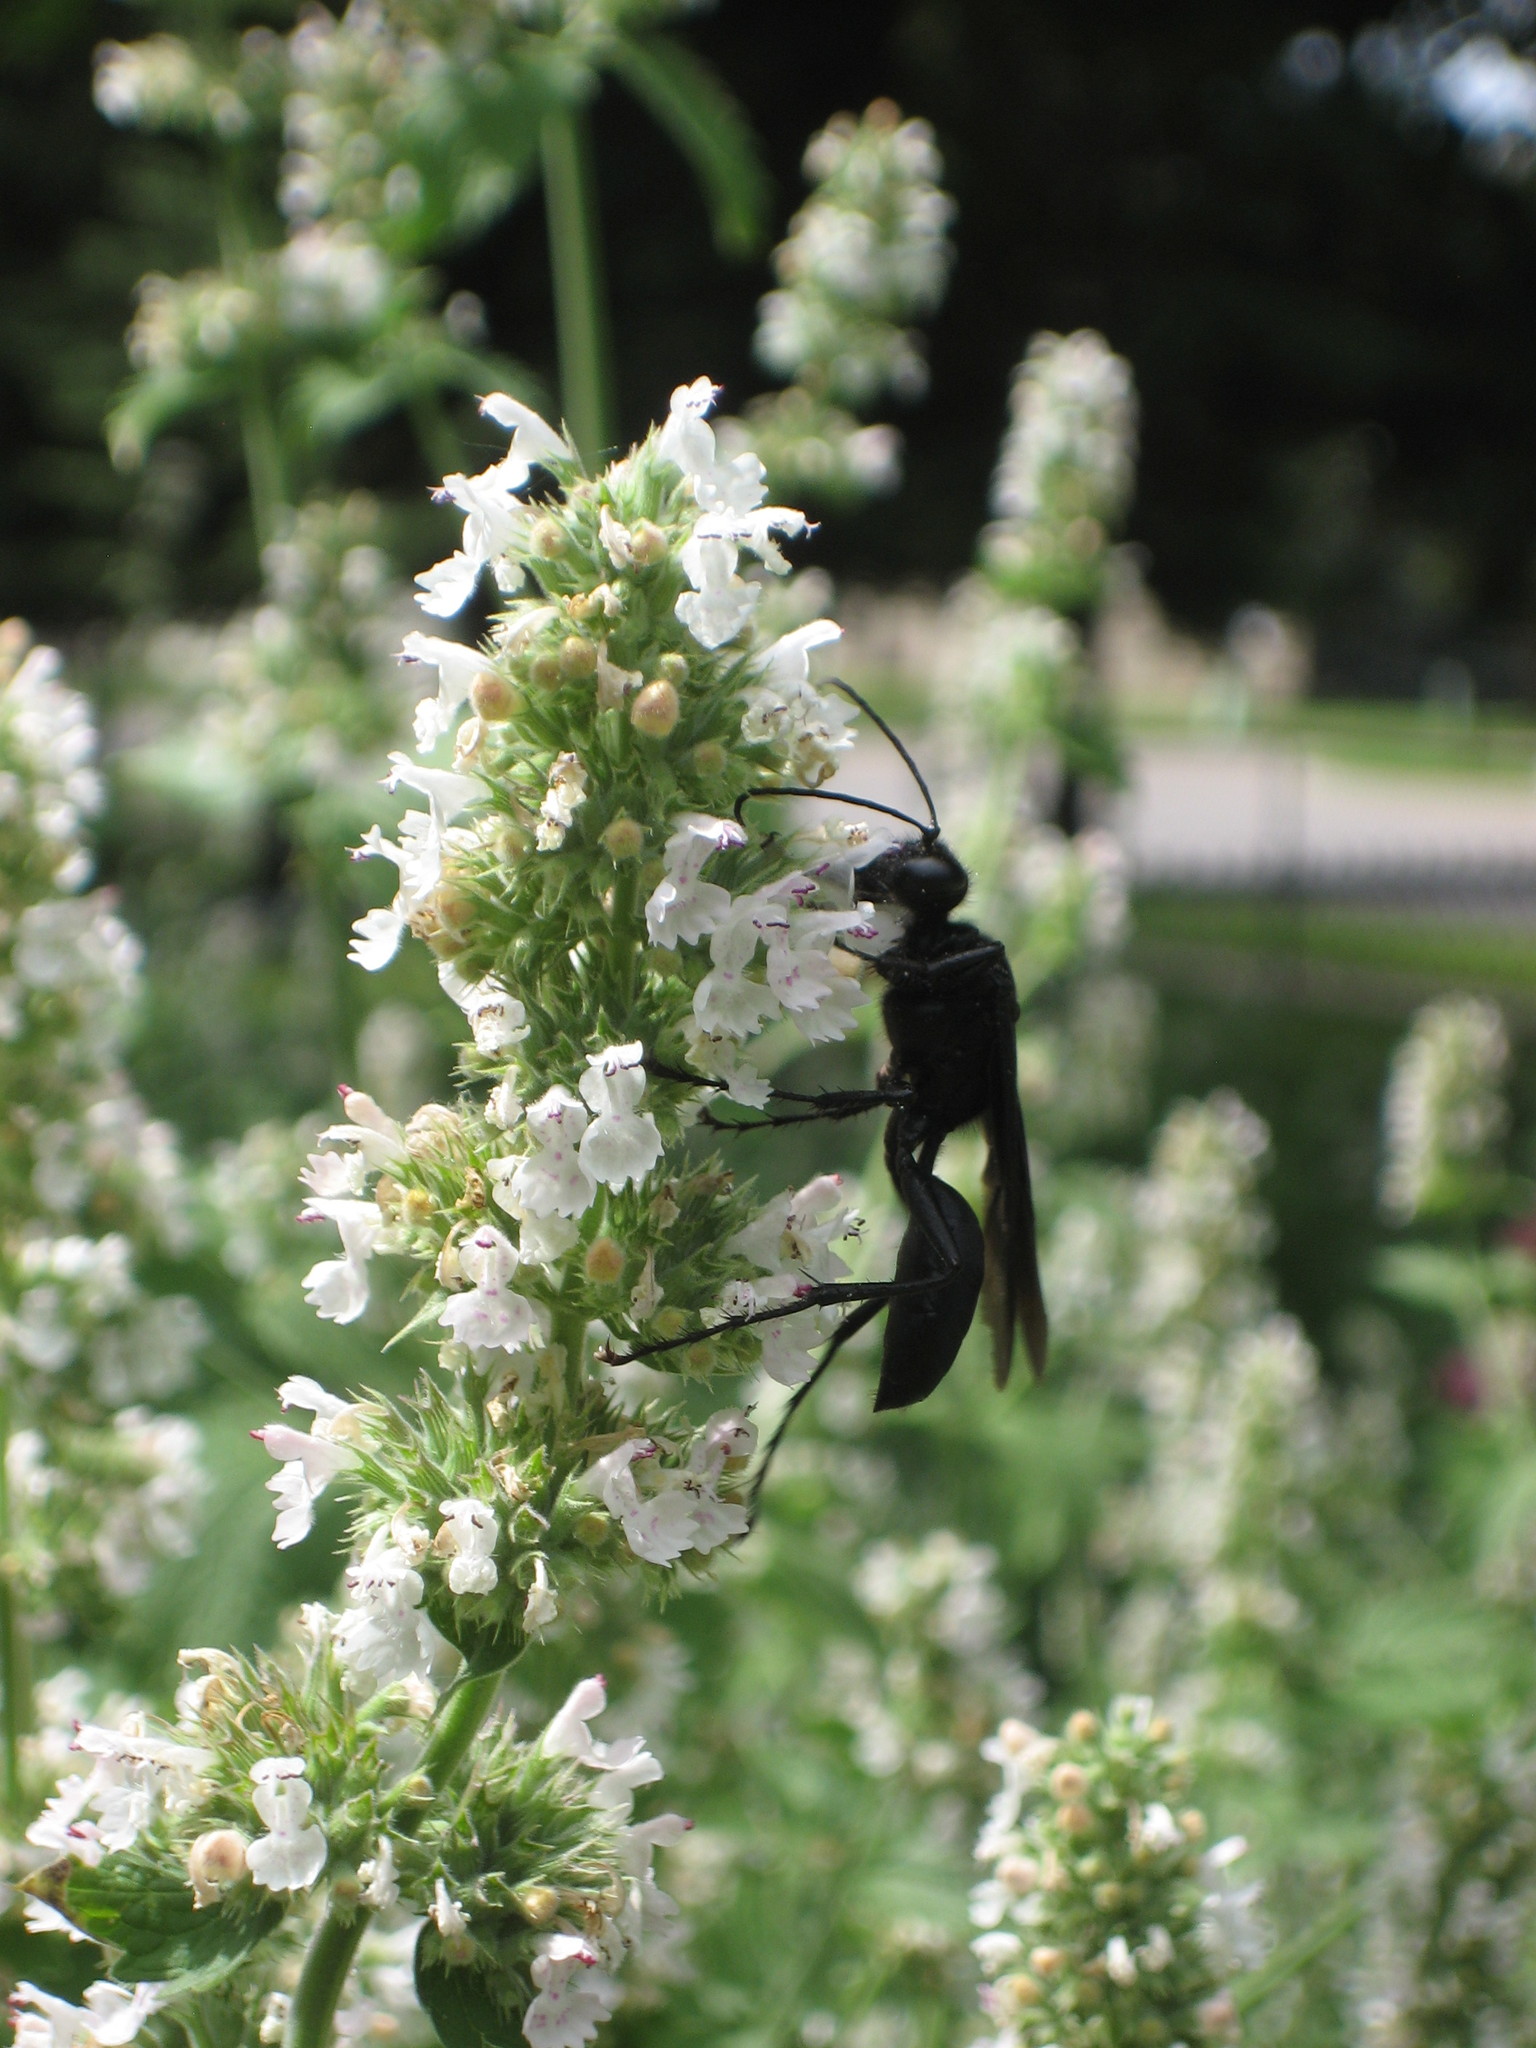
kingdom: Animalia
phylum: Arthropoda
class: Insecta
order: Hymenoptera
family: Sphecidae
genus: Sphex
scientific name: Sphex pensylvanicus
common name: Great black digger wasp
